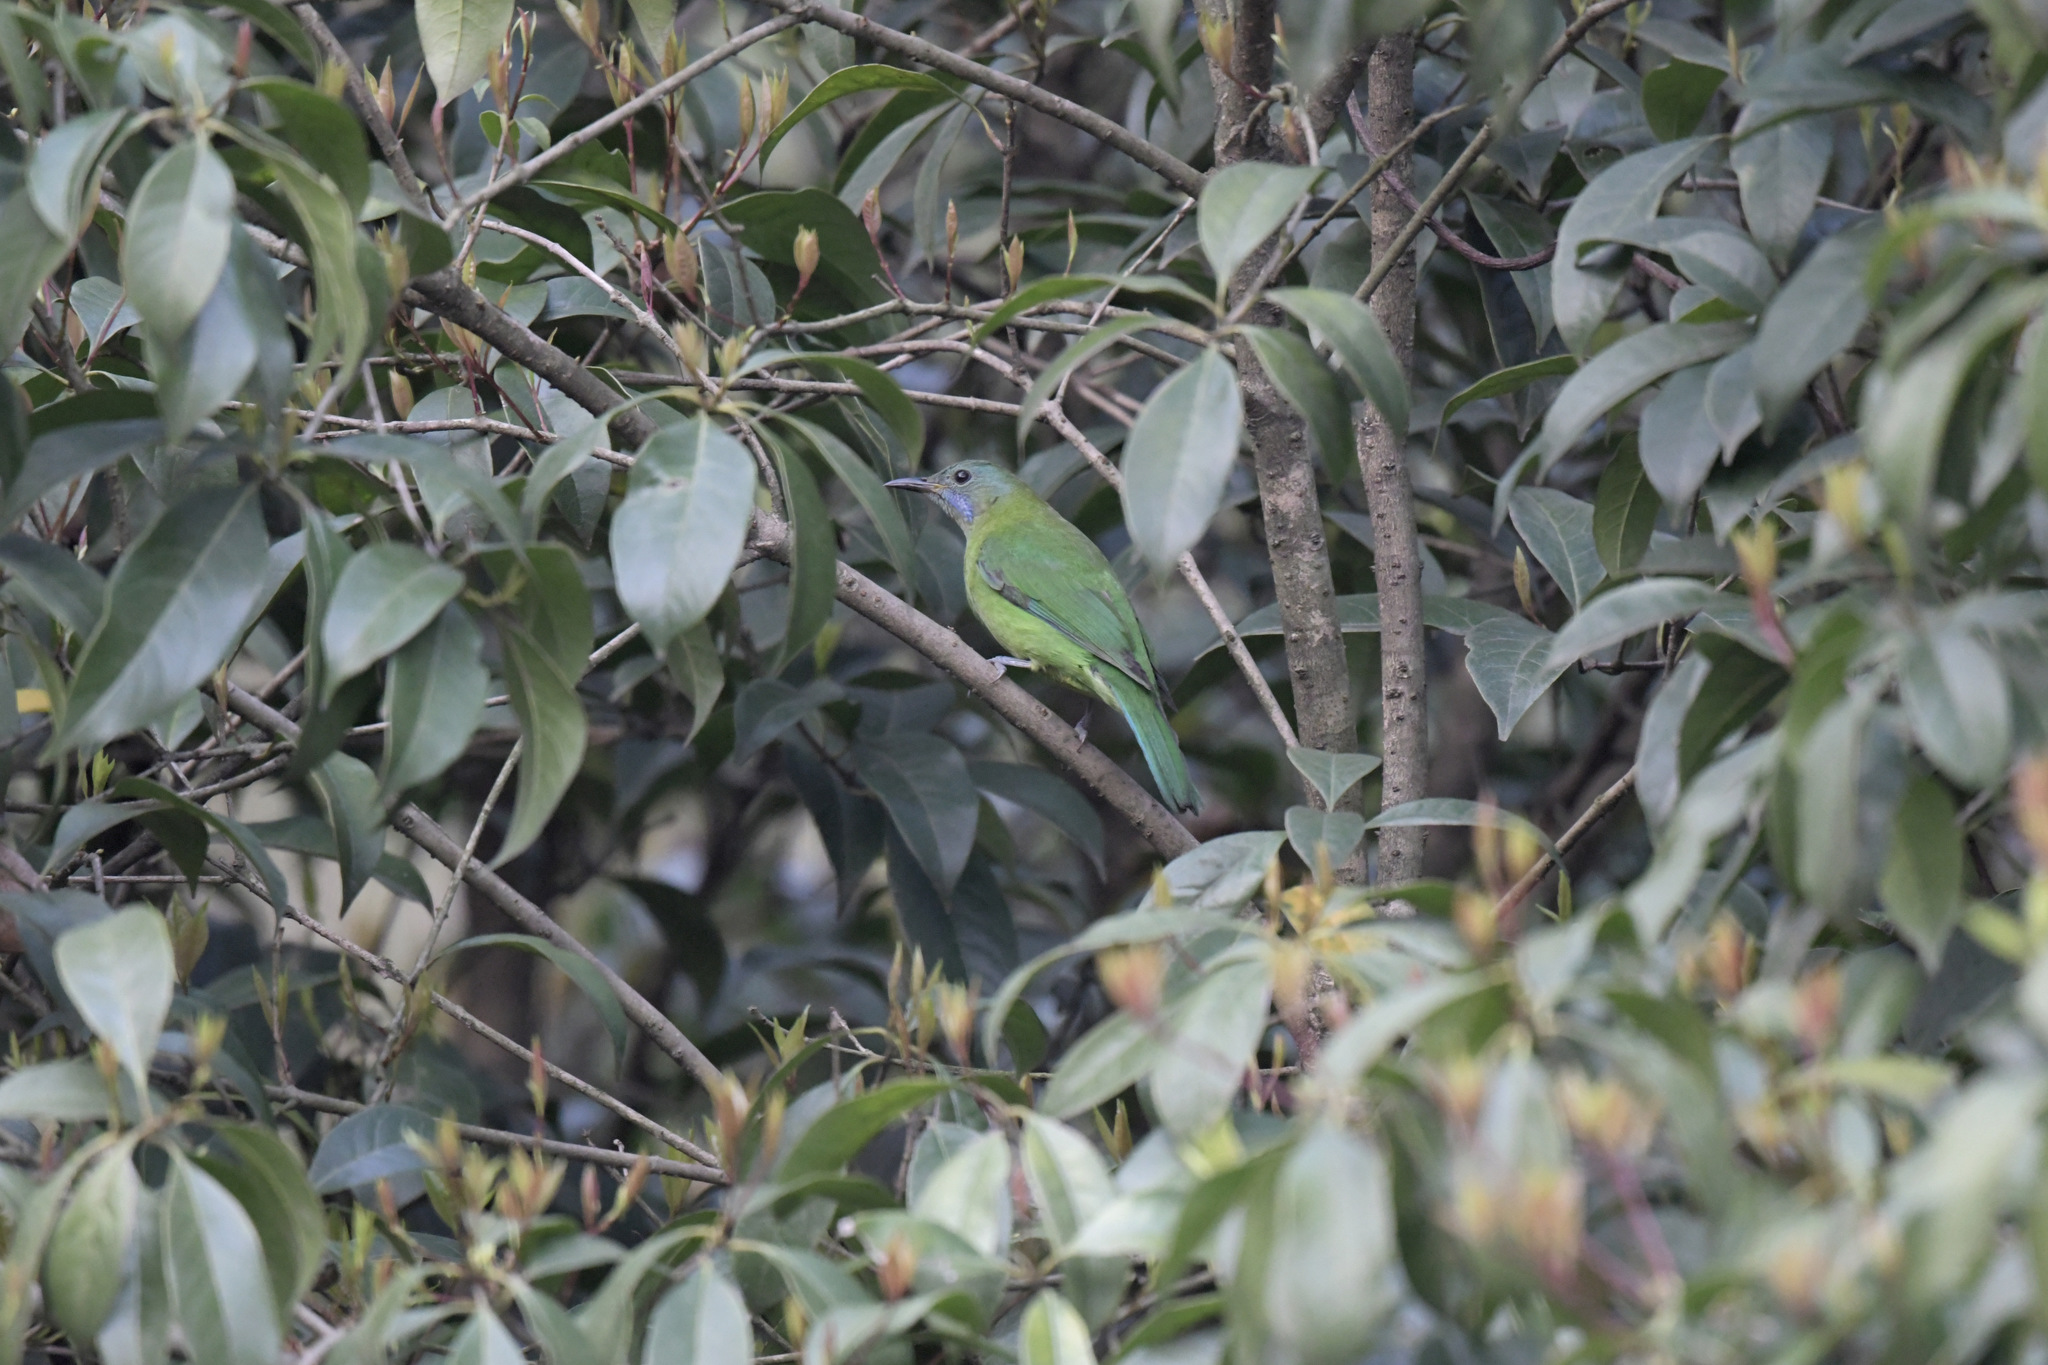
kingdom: Animalia
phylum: Chordata
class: Aves
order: Passeriformes
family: Chloropseidae
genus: Chloropsis
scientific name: Chloropsis hardwickii
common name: Orange-bellied leafbird
